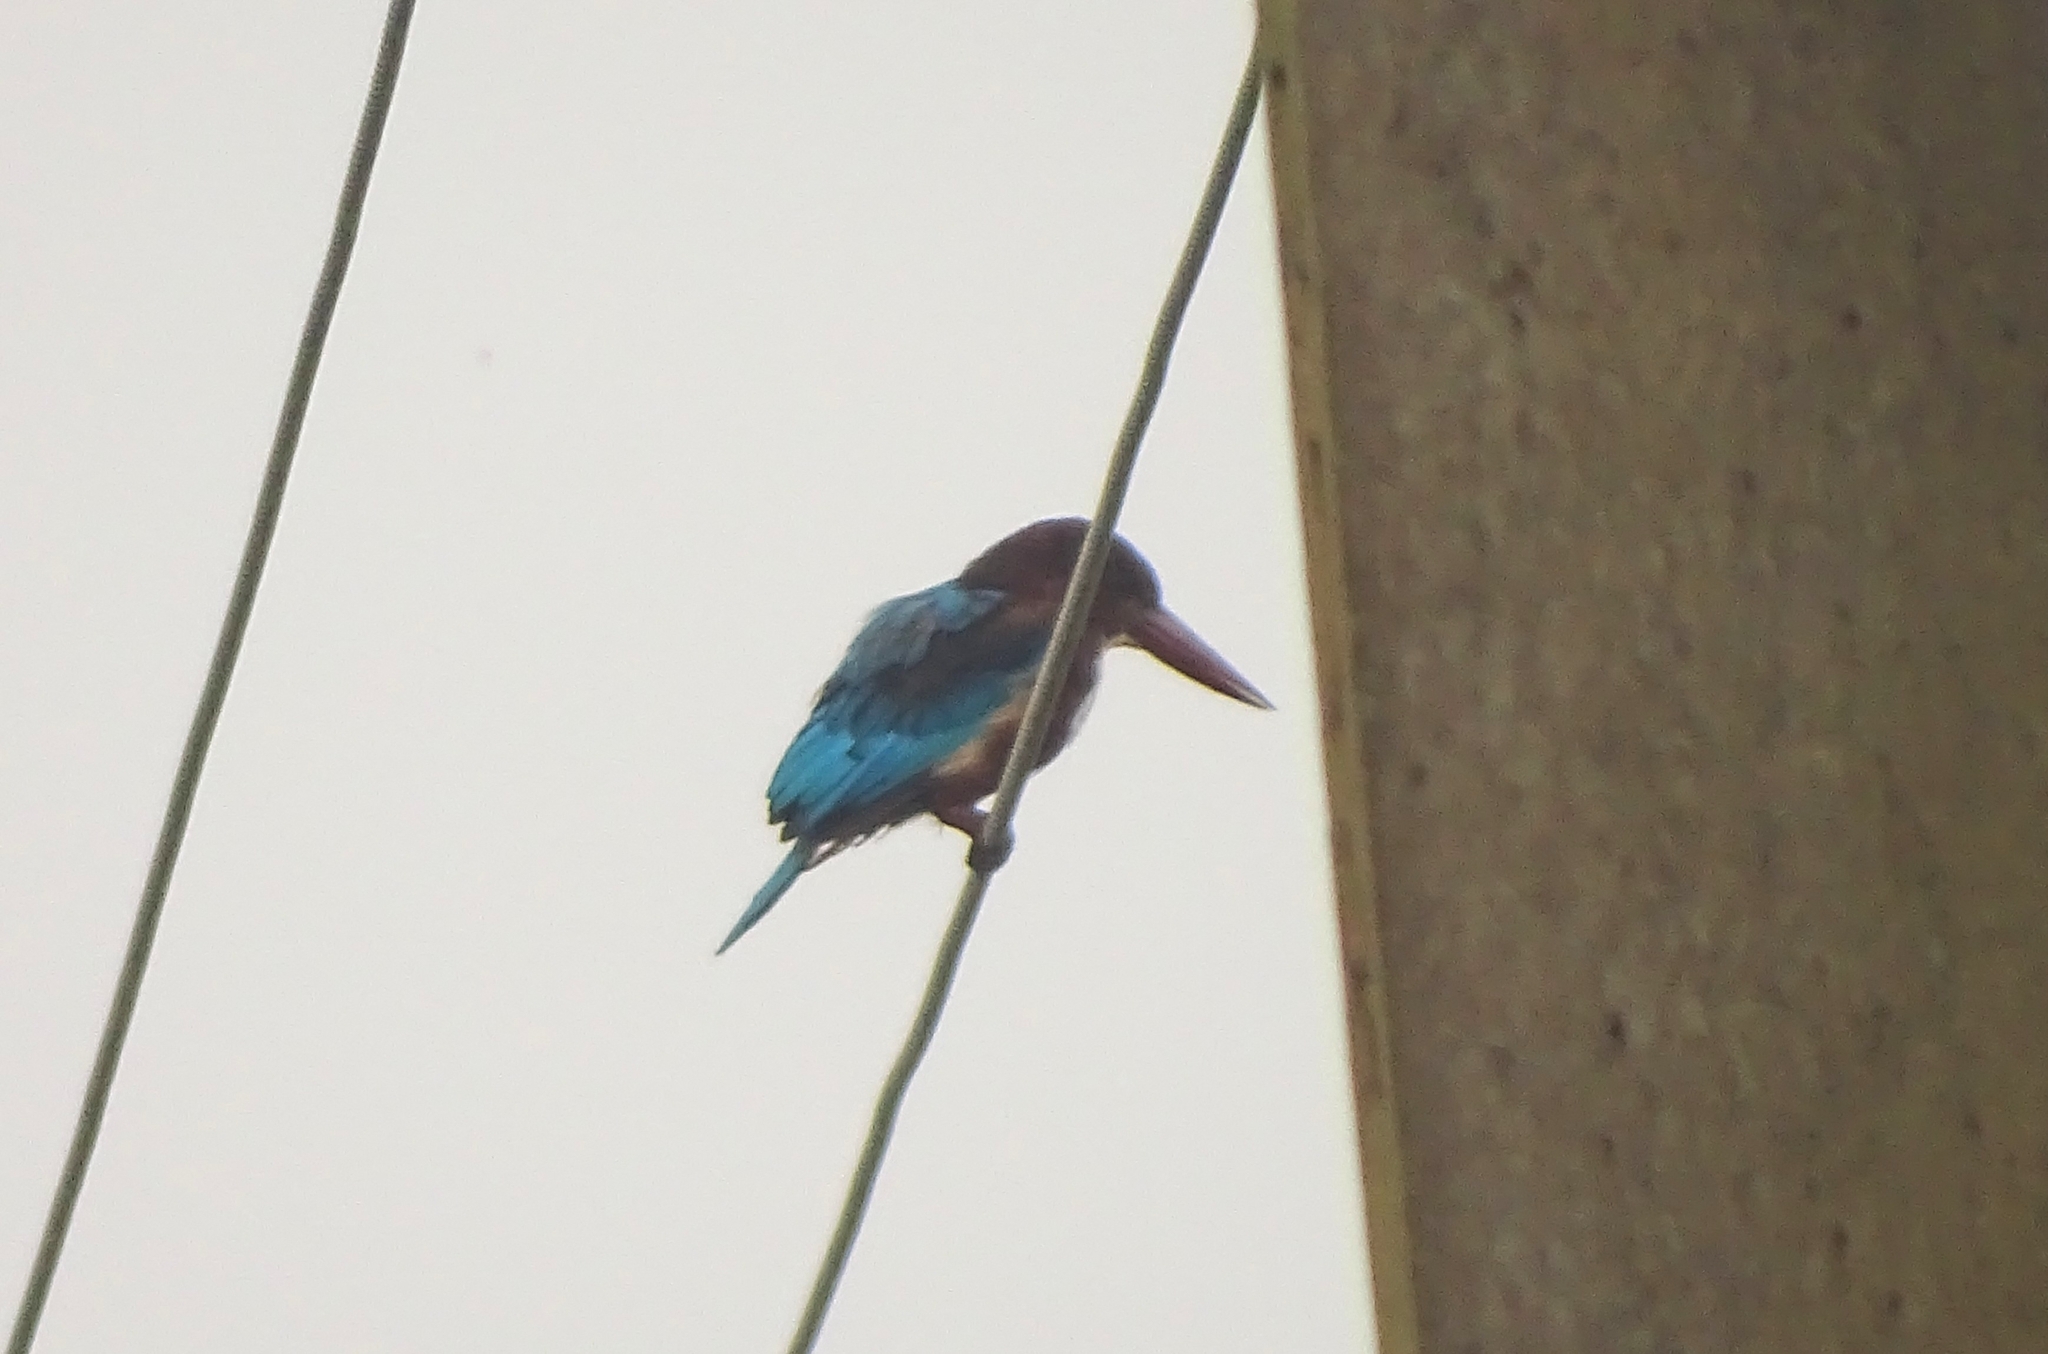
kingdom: Animalia
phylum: Chordata
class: Aves
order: Coraciiformes
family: Alcedinidae
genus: Halcyon
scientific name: Halcyon smyrnensis
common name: White-throated kingfisher
